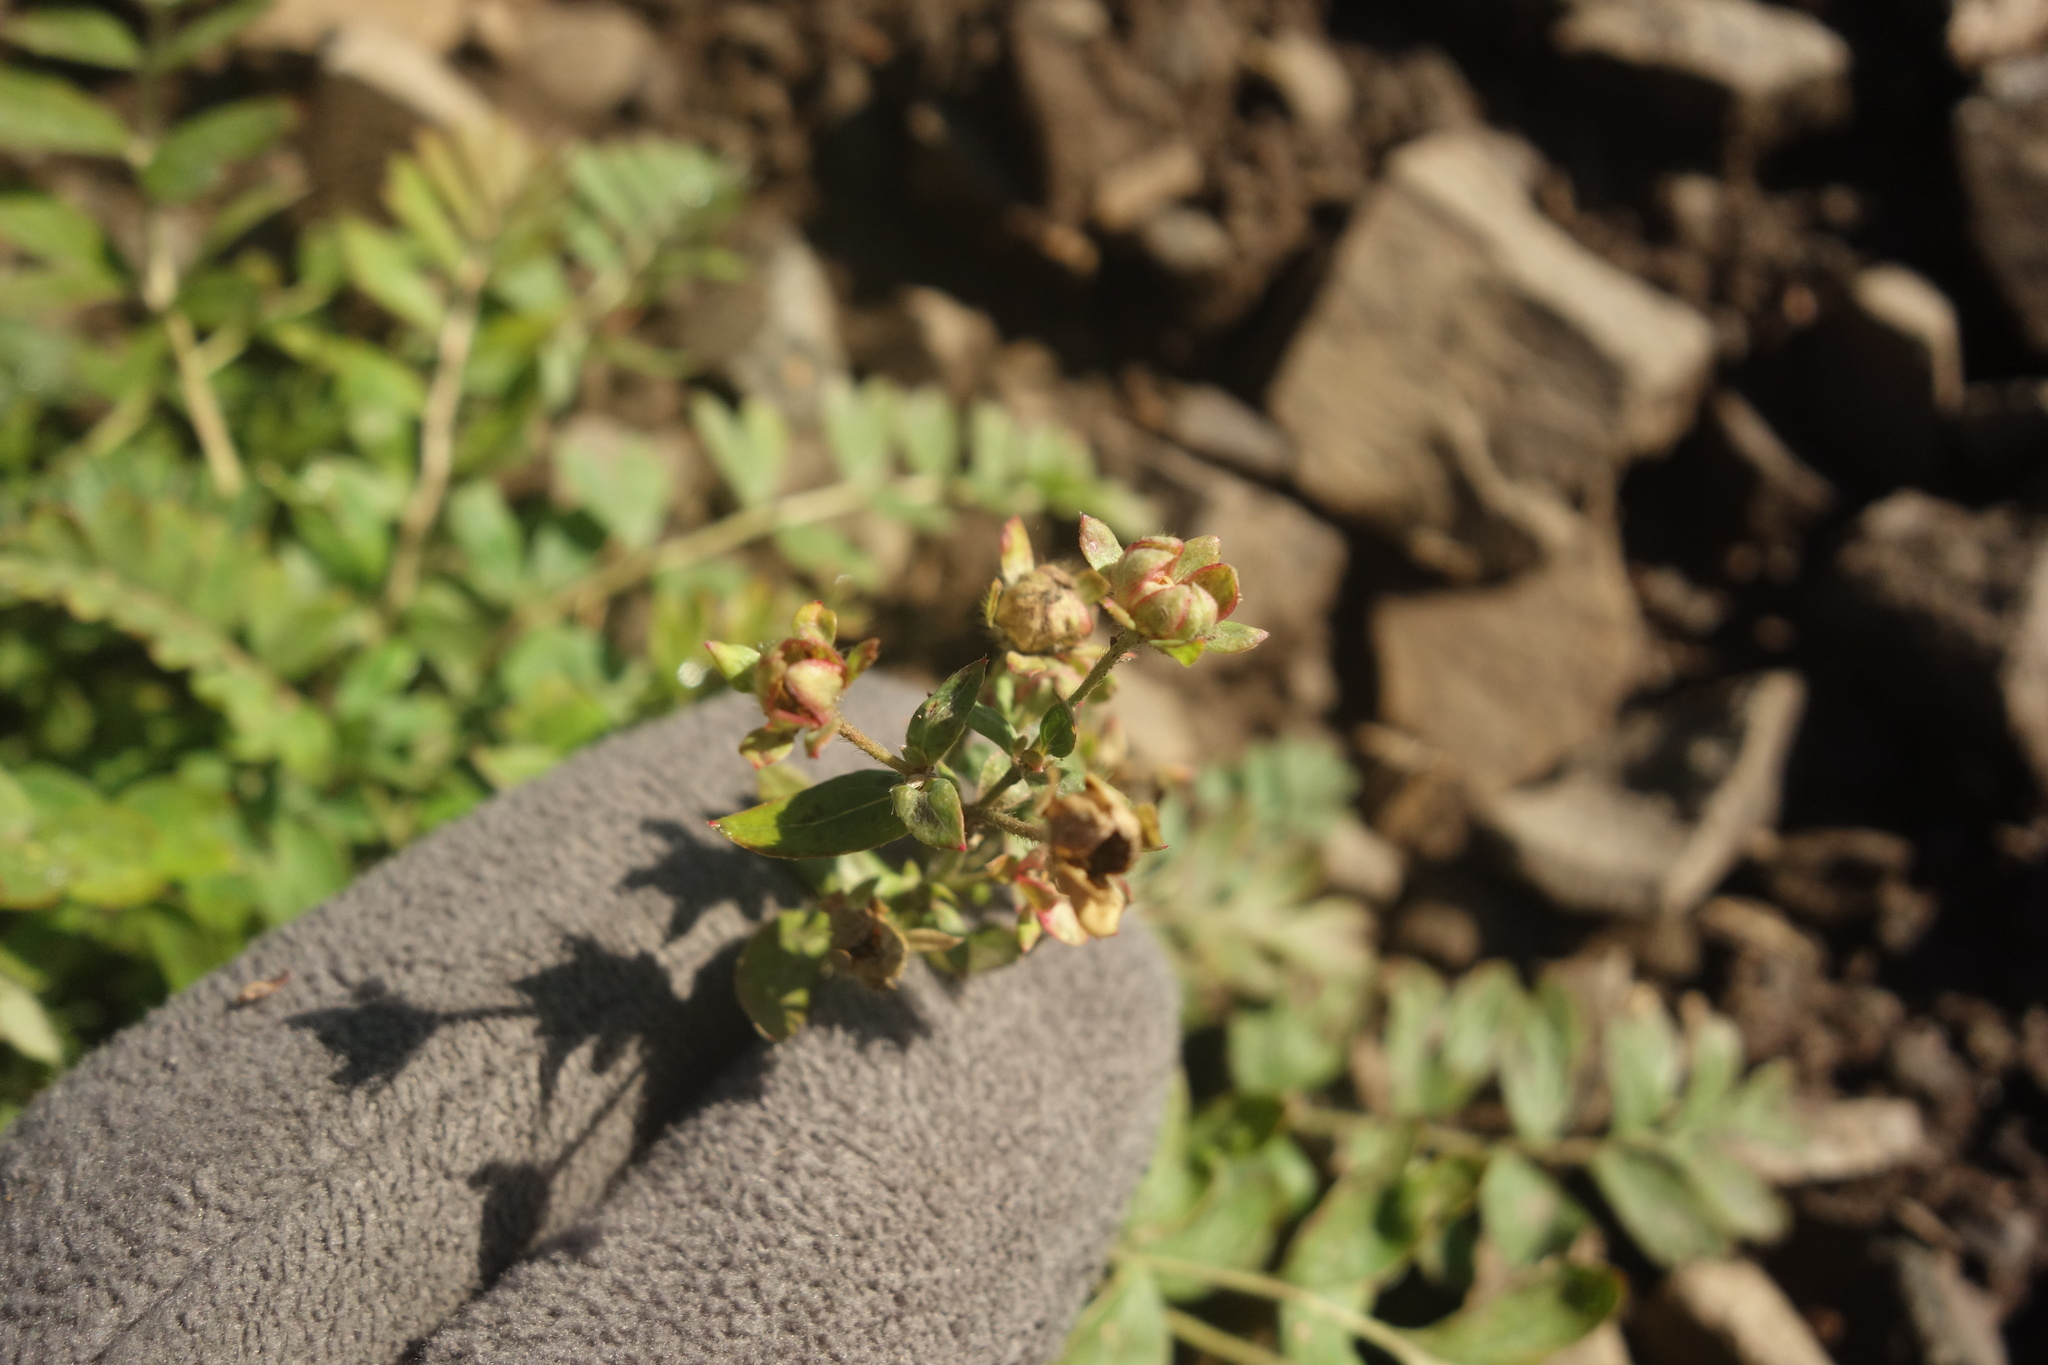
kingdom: Plantae
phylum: Tracheophyta
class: Magnoliopsida
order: Rosales
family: Rosaceae
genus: Sibbaldianthe
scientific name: Sibbaldianthe bifurca
